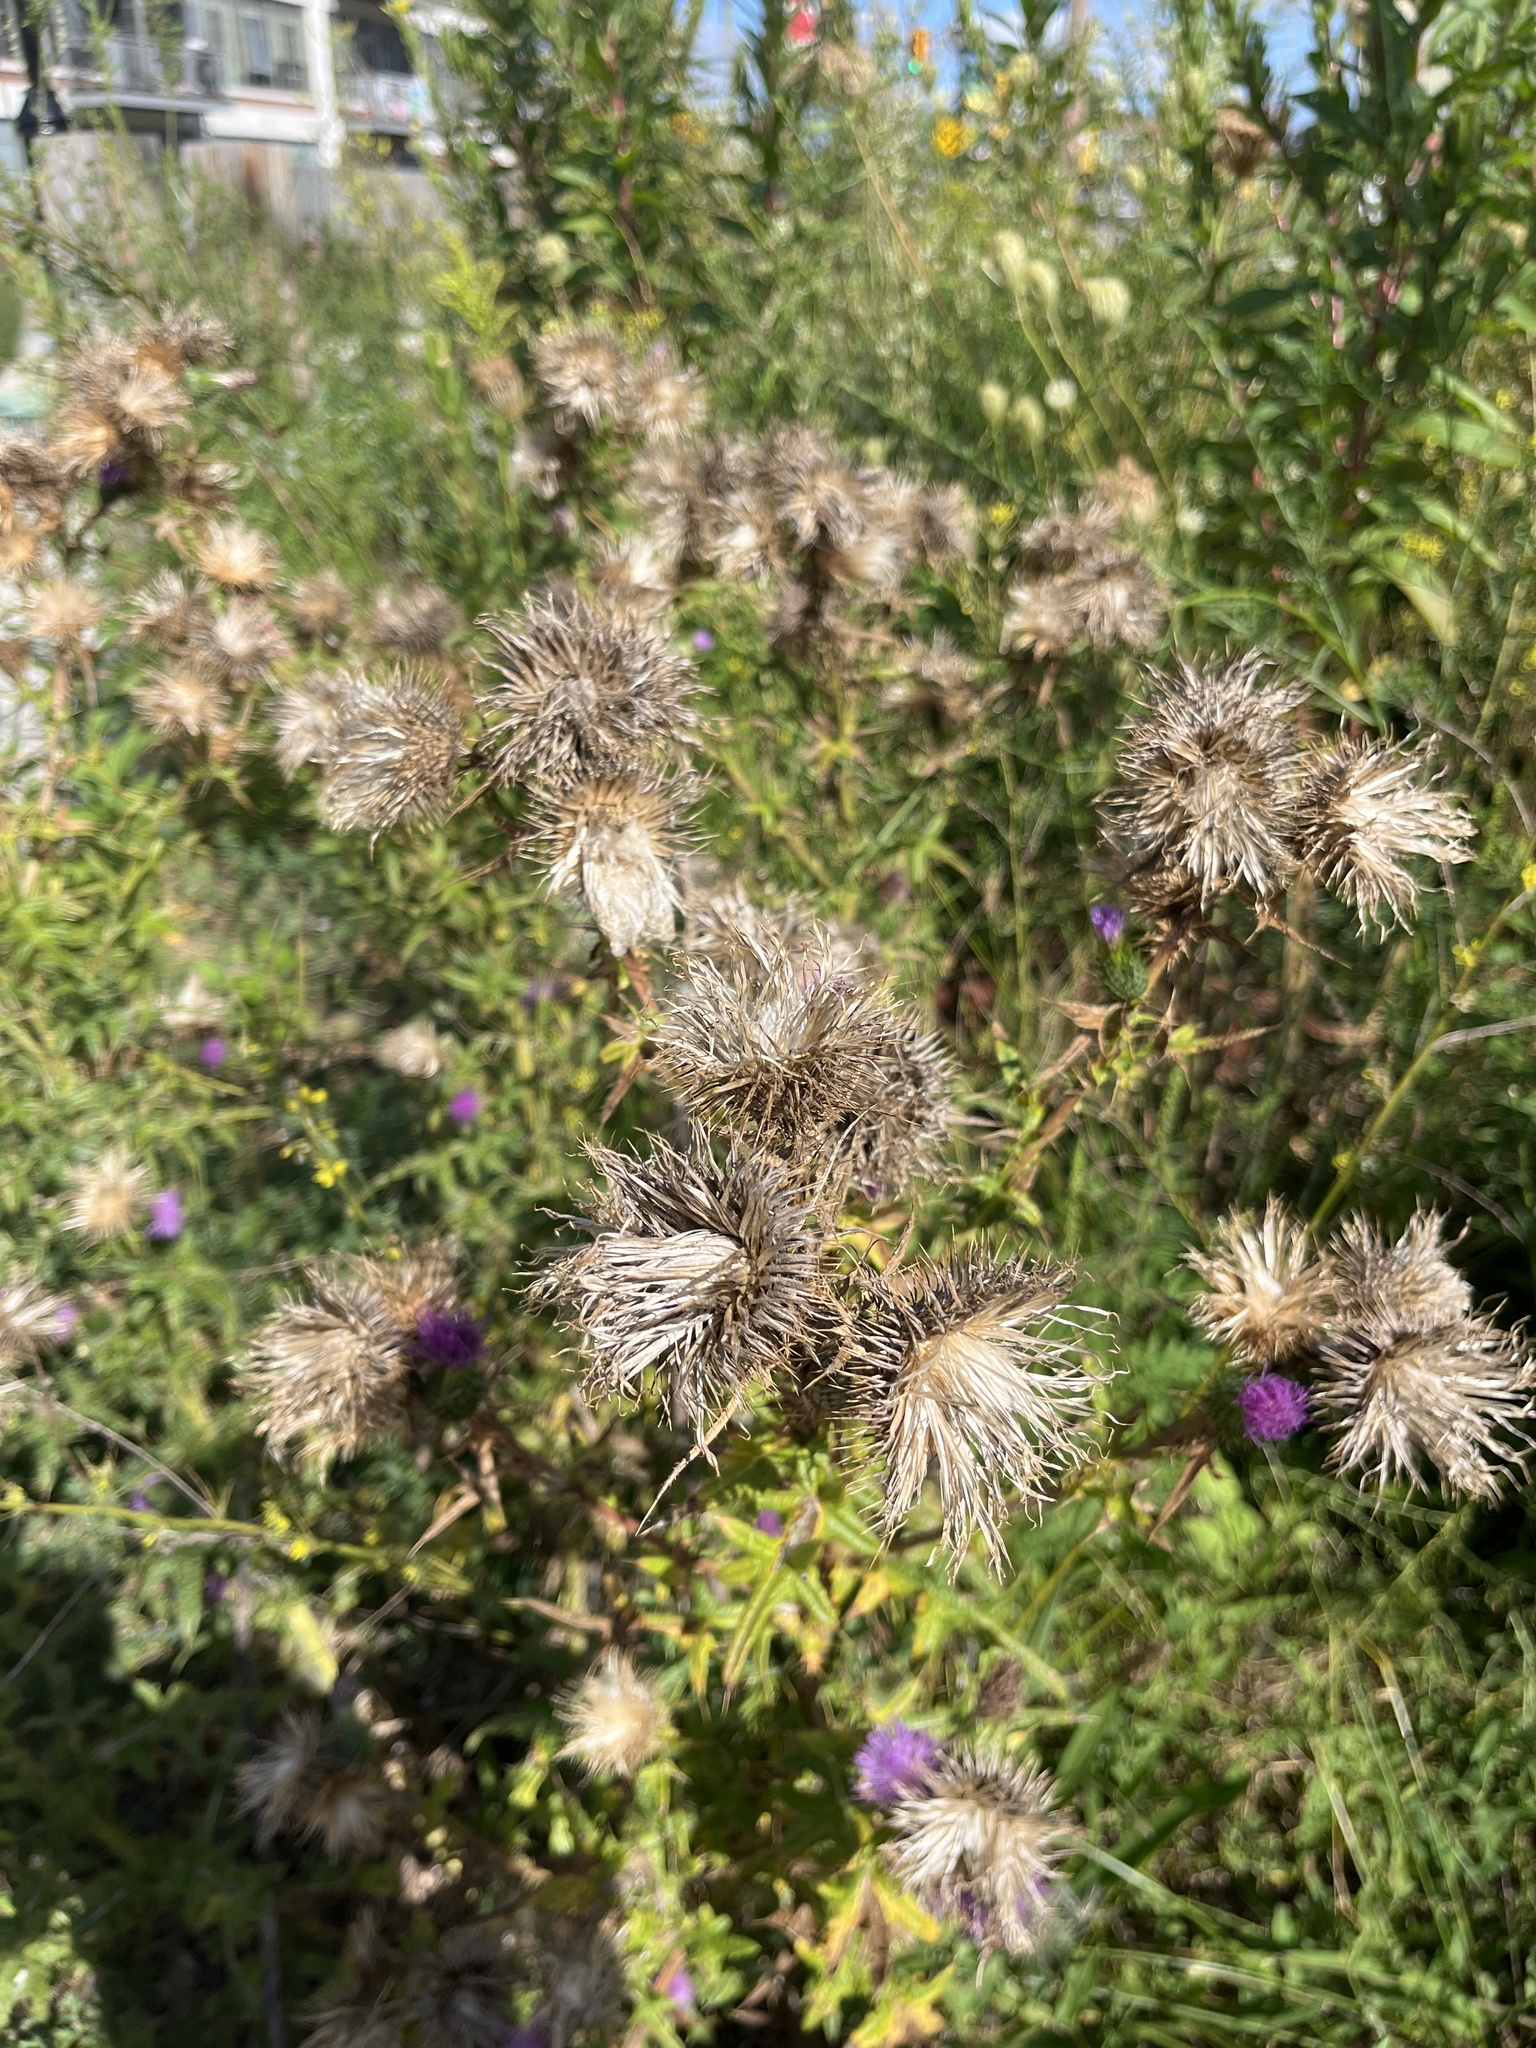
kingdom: Plantae
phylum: Tracheophyta
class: Magnoliopsida
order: Asterales
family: Asteraceae
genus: Cirsium
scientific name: Cirsium vulgare
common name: Bull thistle
